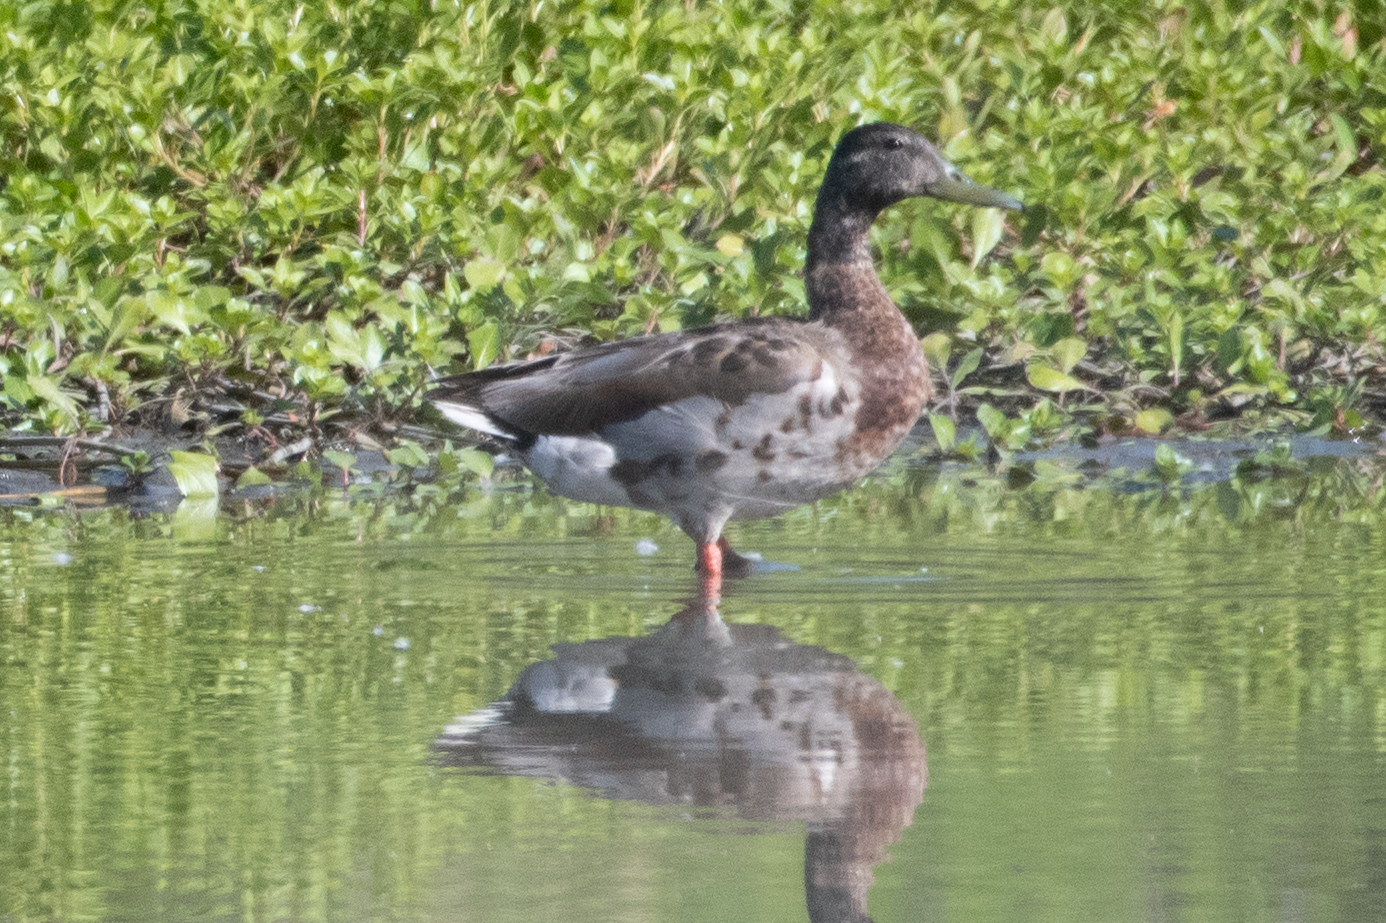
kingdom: Animalia
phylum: Chordata
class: Aves
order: Anseriformes
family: Anatidae
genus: Anas
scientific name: Anas platyrhynchos
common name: Mallard
